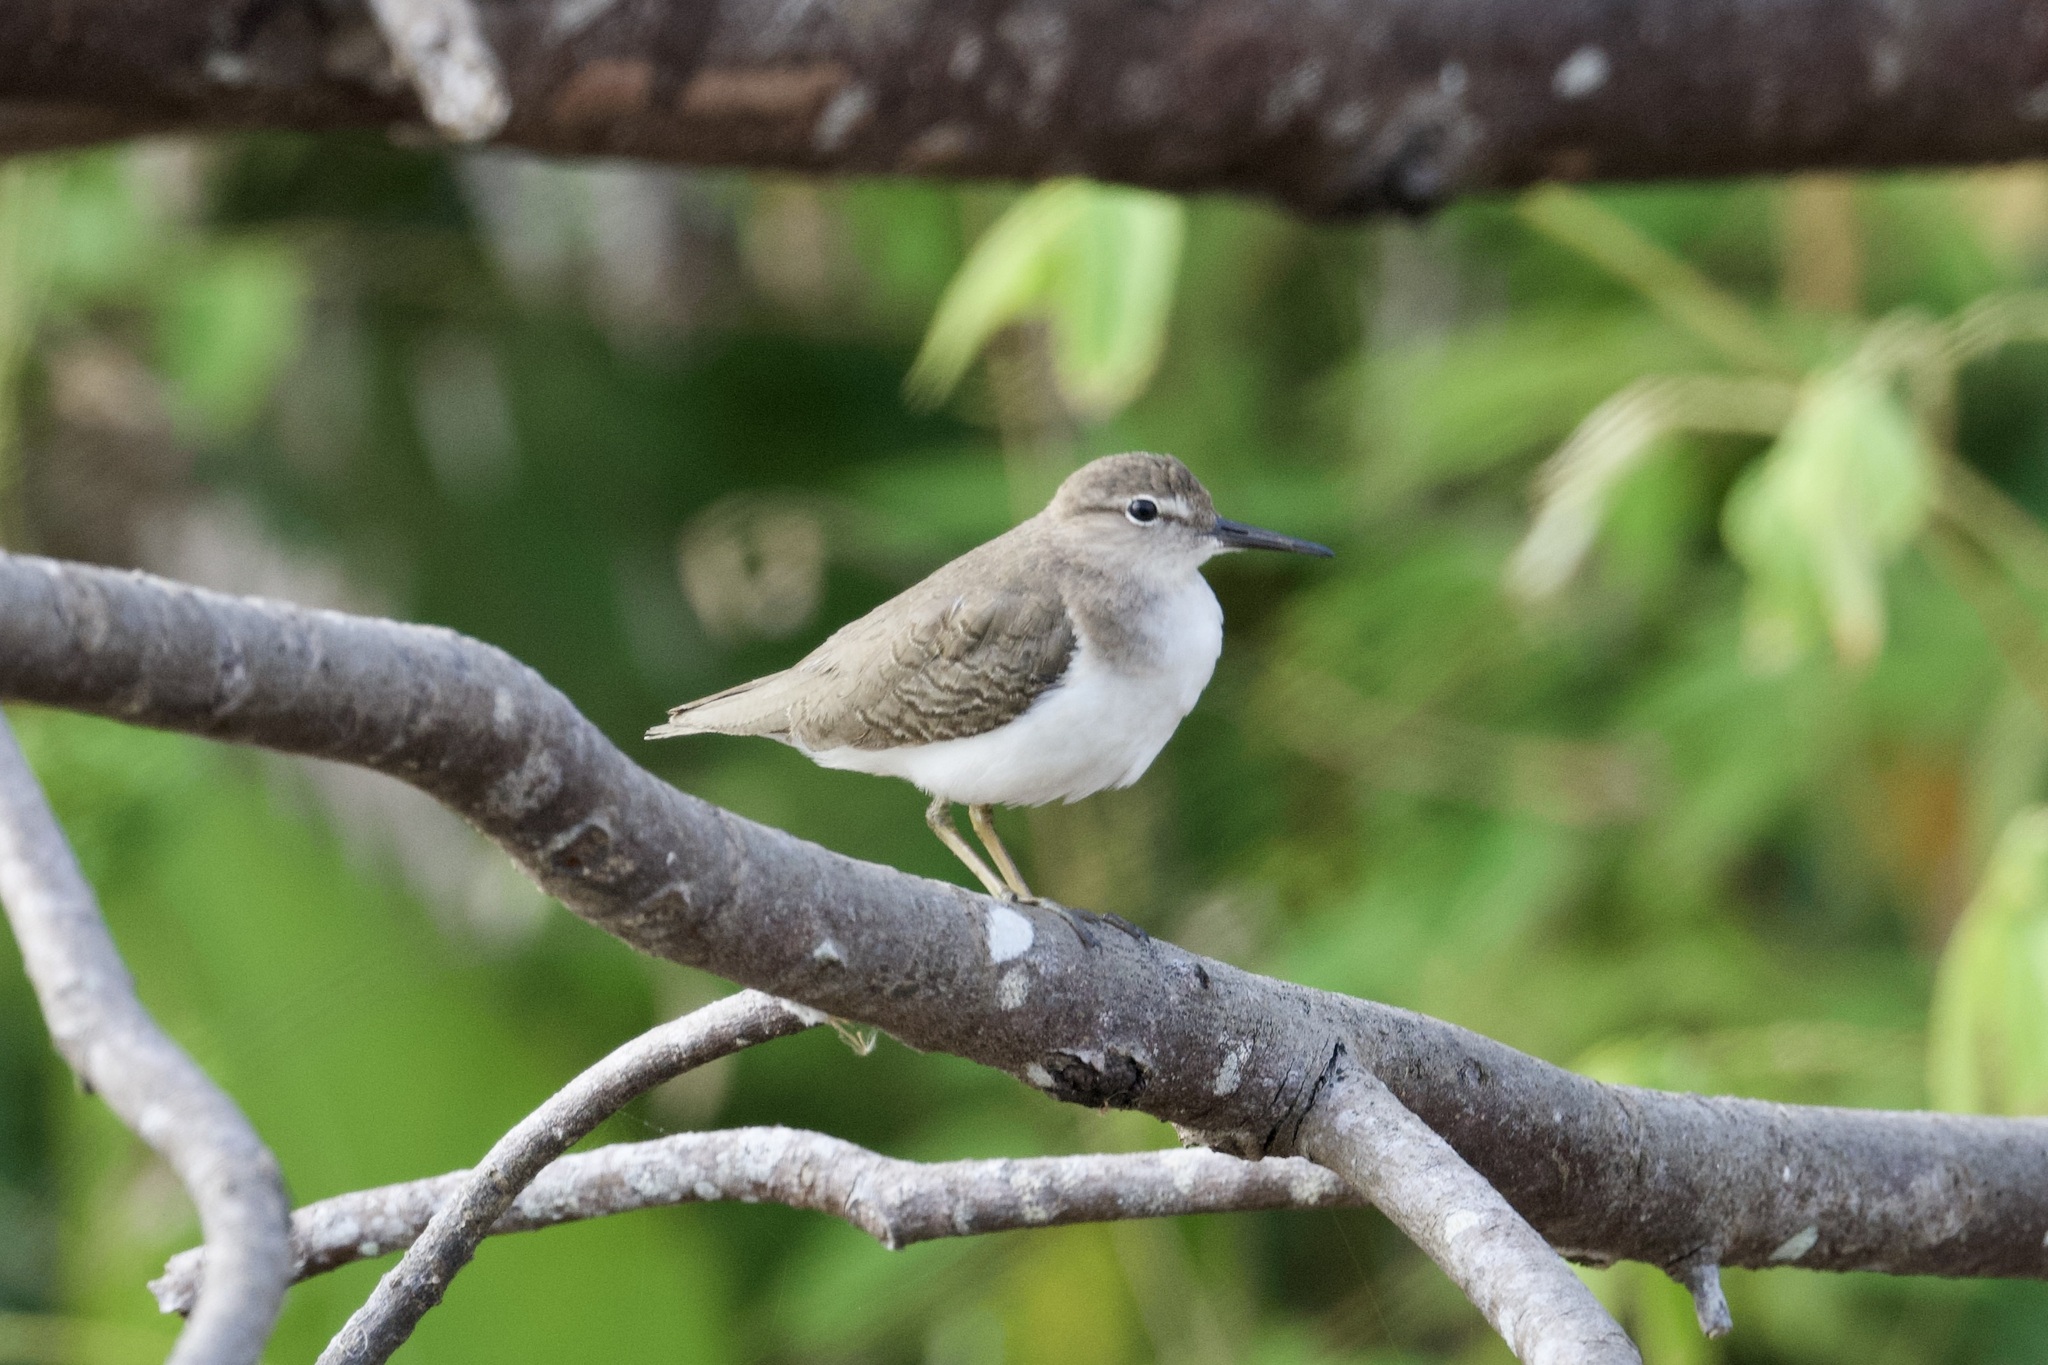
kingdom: Animalia
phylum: Chordata
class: Aves
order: Charadriiformes
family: Scolopacidae
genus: Actitis
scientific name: Actitis macularius
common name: Spotted sandpiper
